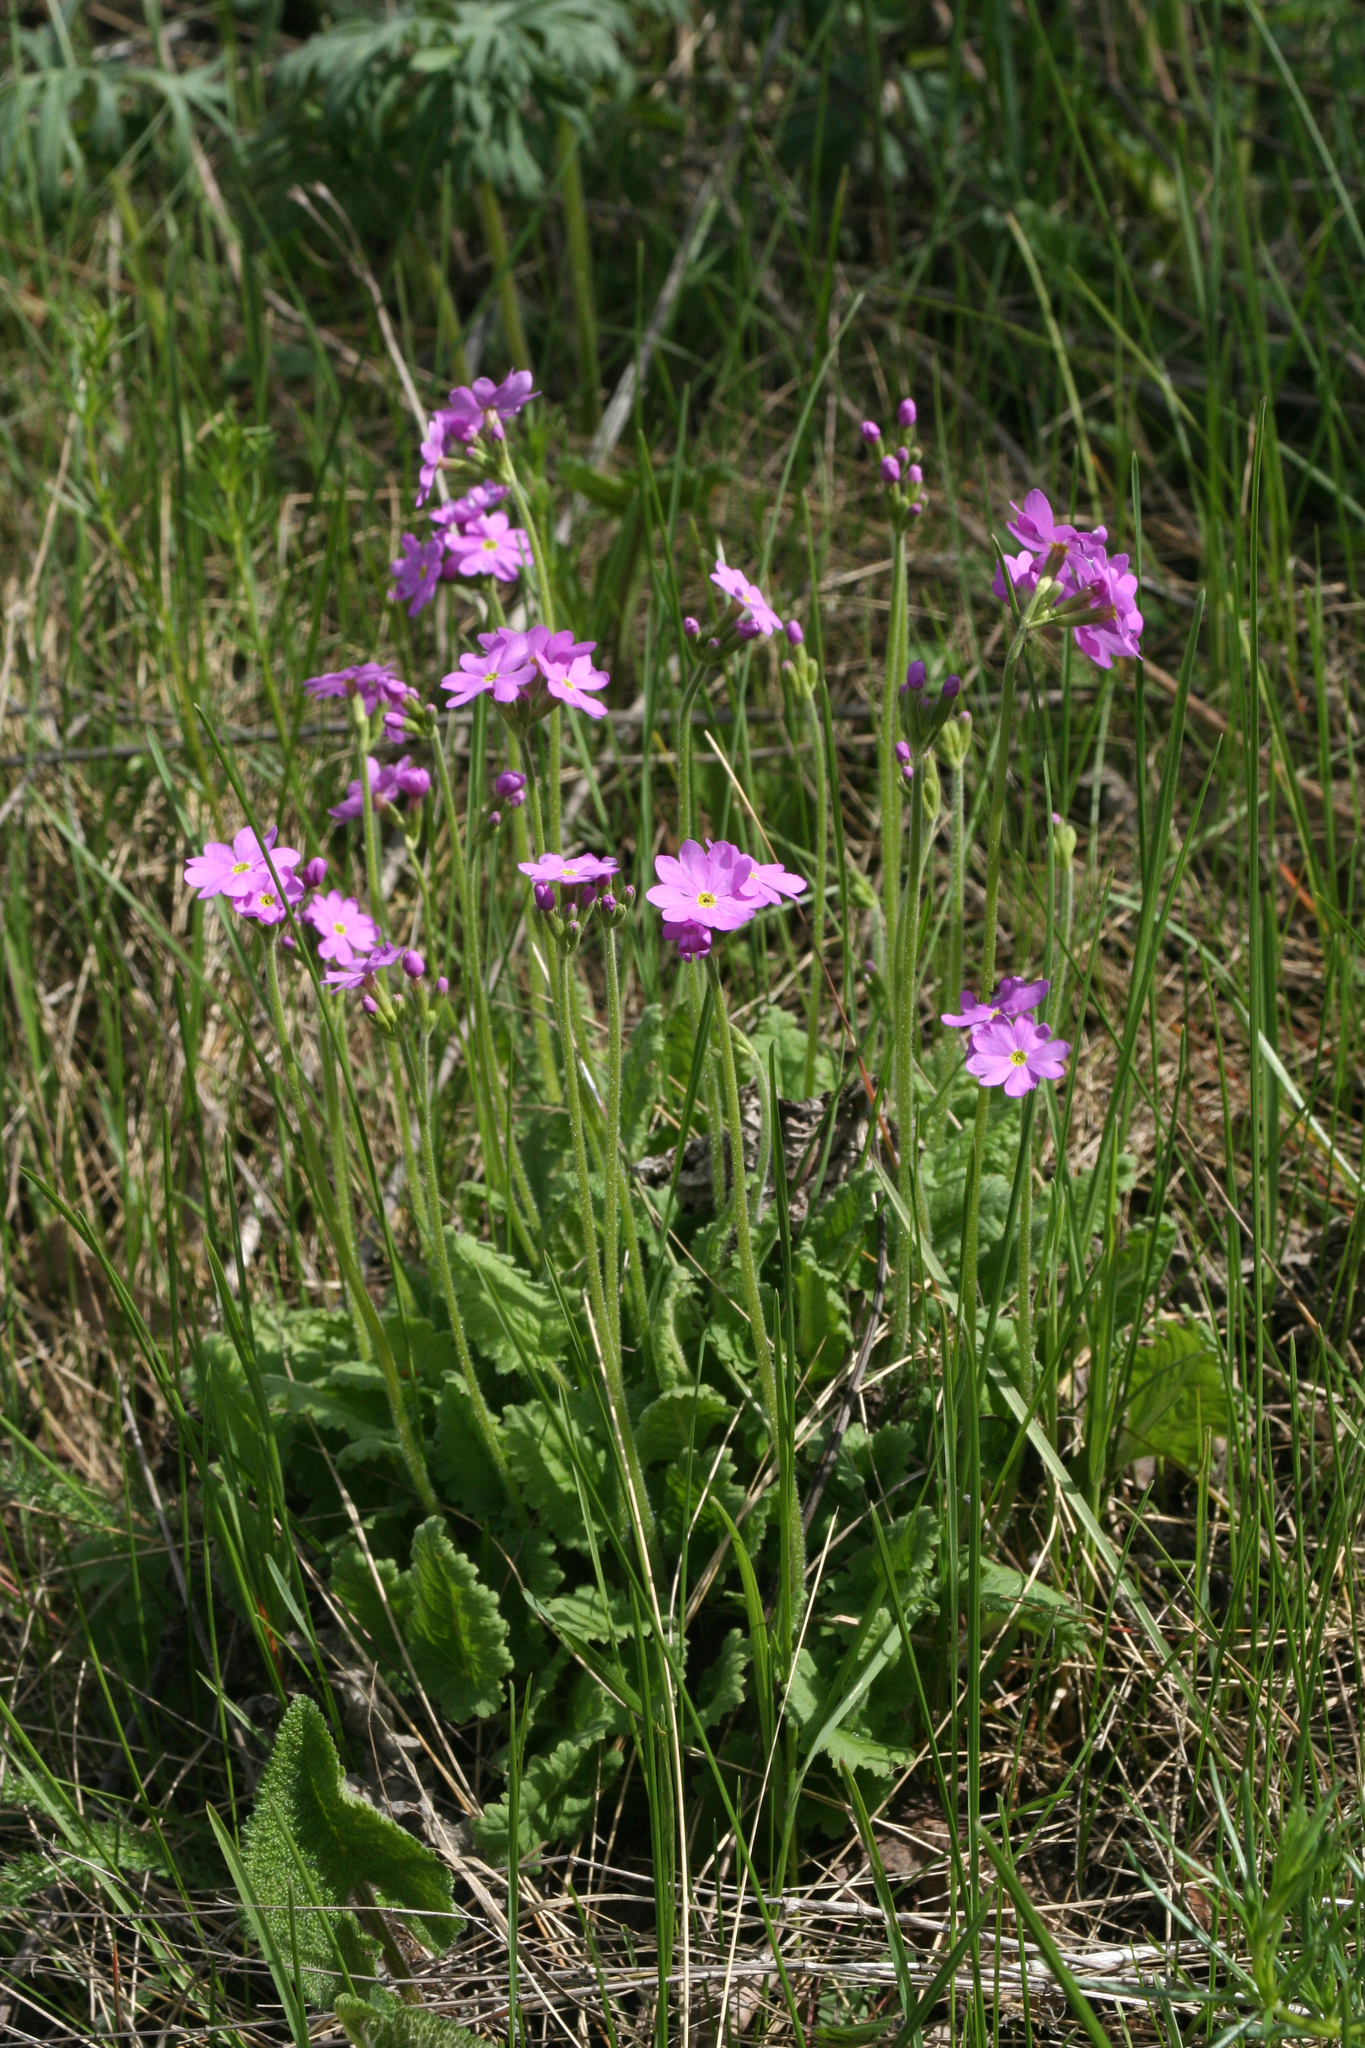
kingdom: Plantae
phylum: Tracheophyta
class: Magnoliopsida
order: Ericales
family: Primulaceae
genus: Primula
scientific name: Primula cortusoides
